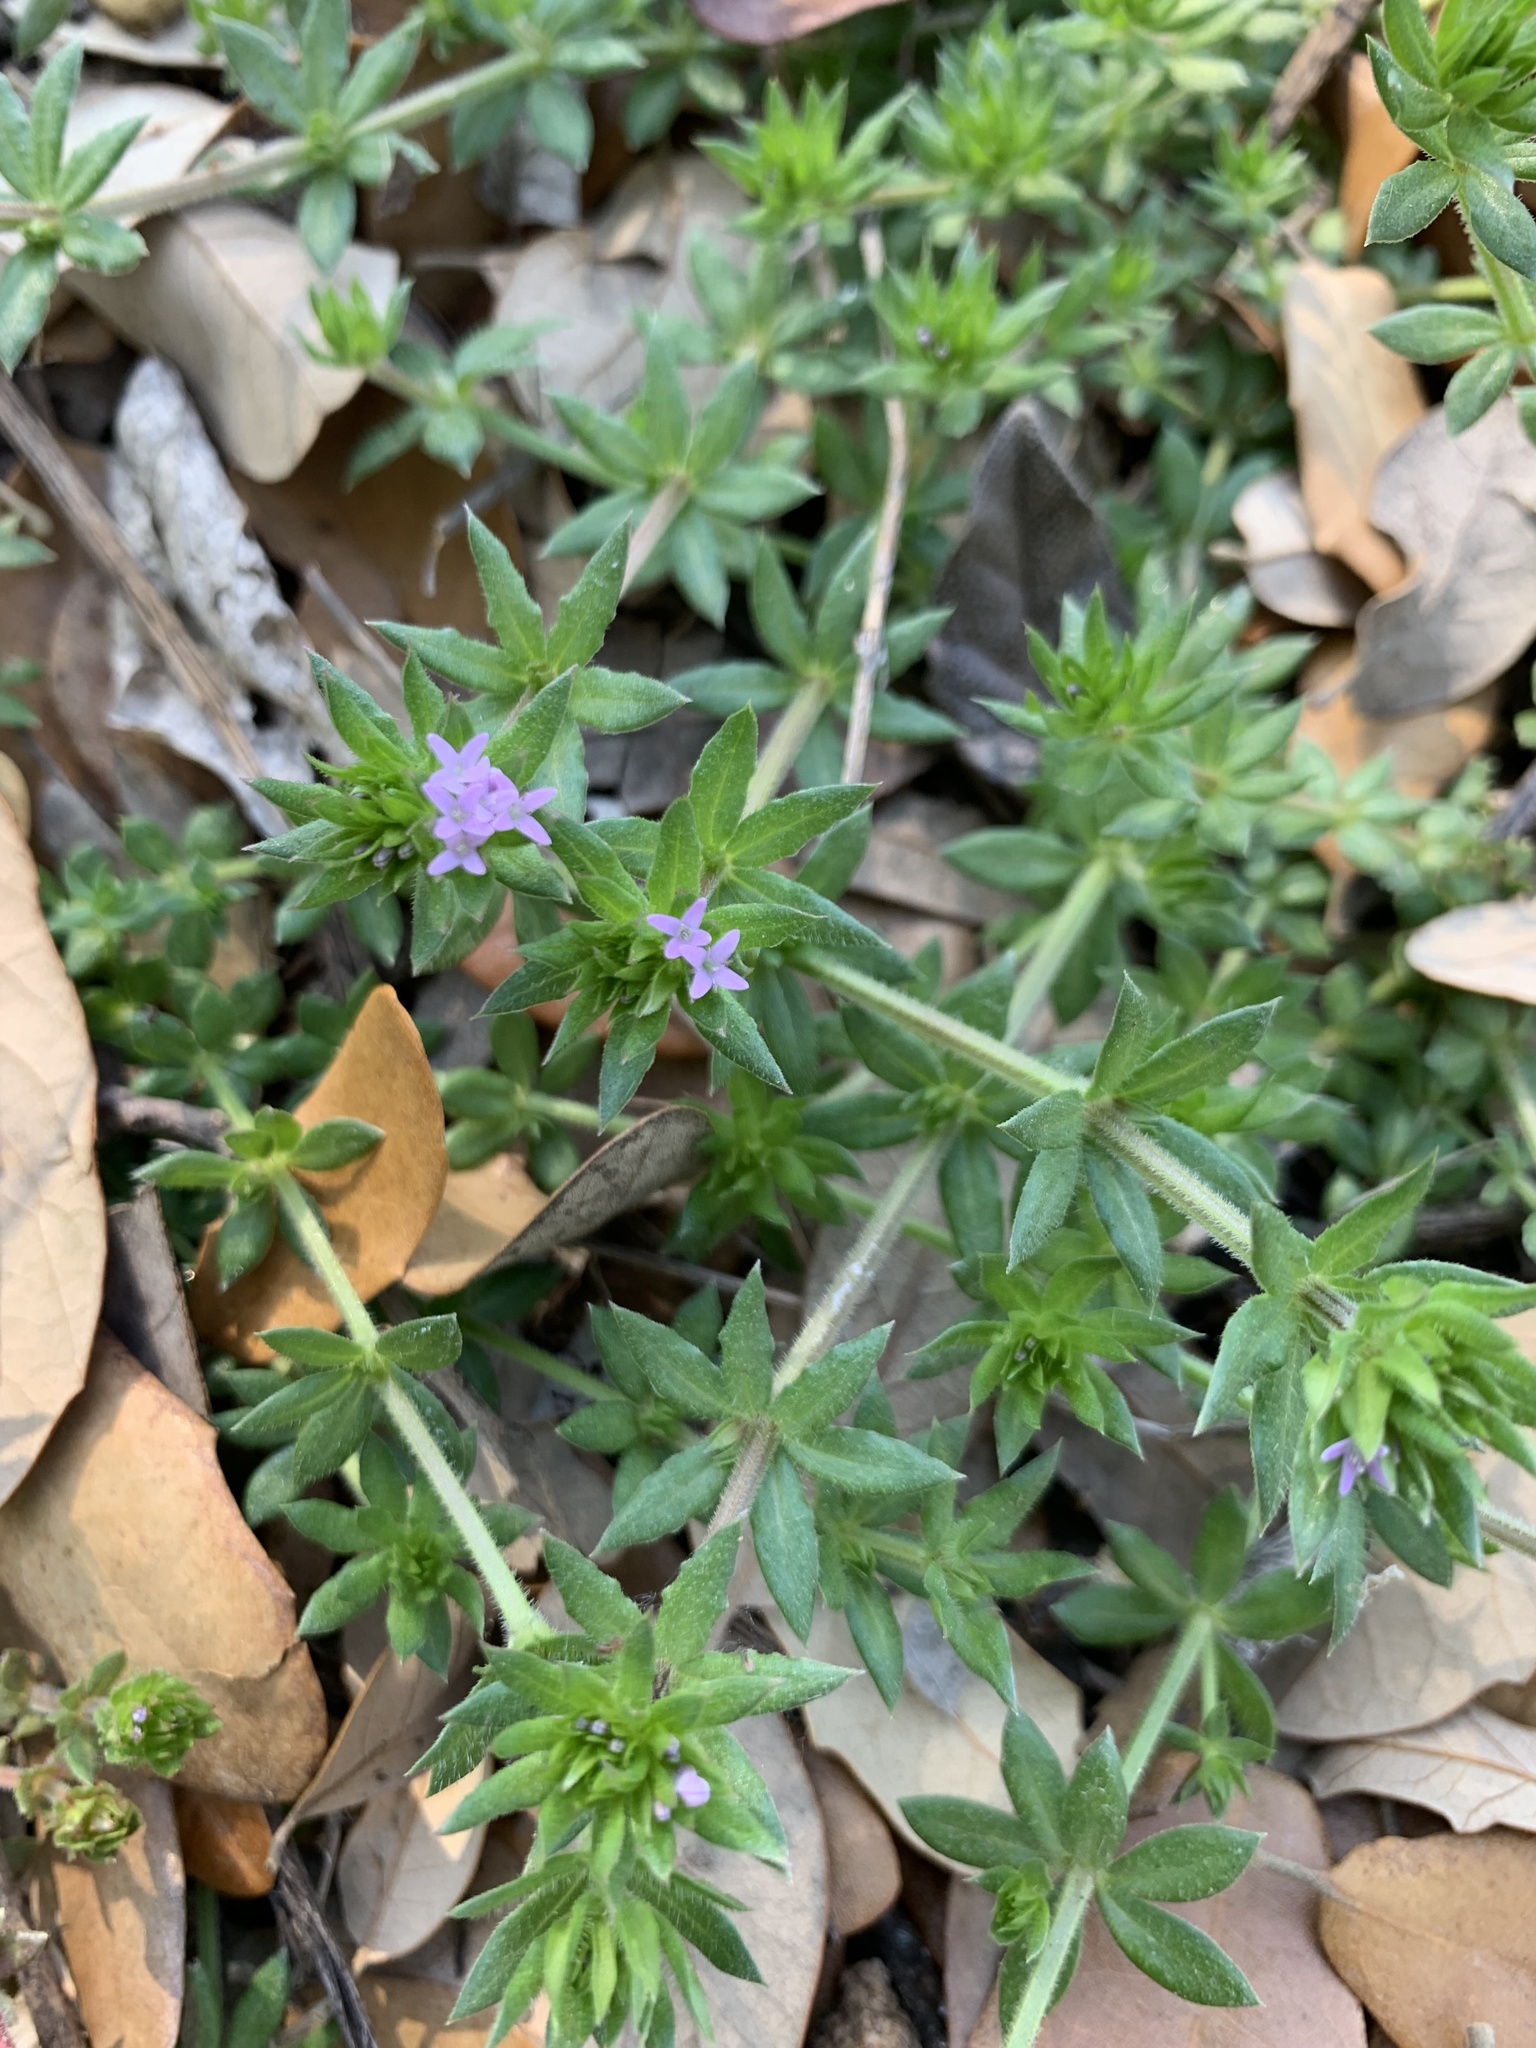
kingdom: Plantae
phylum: Tracheophyta
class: Magnoliopsida
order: Gentianales
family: Rubiaceae
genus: Sherardia
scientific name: Sherardia arvensis
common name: Field madder
